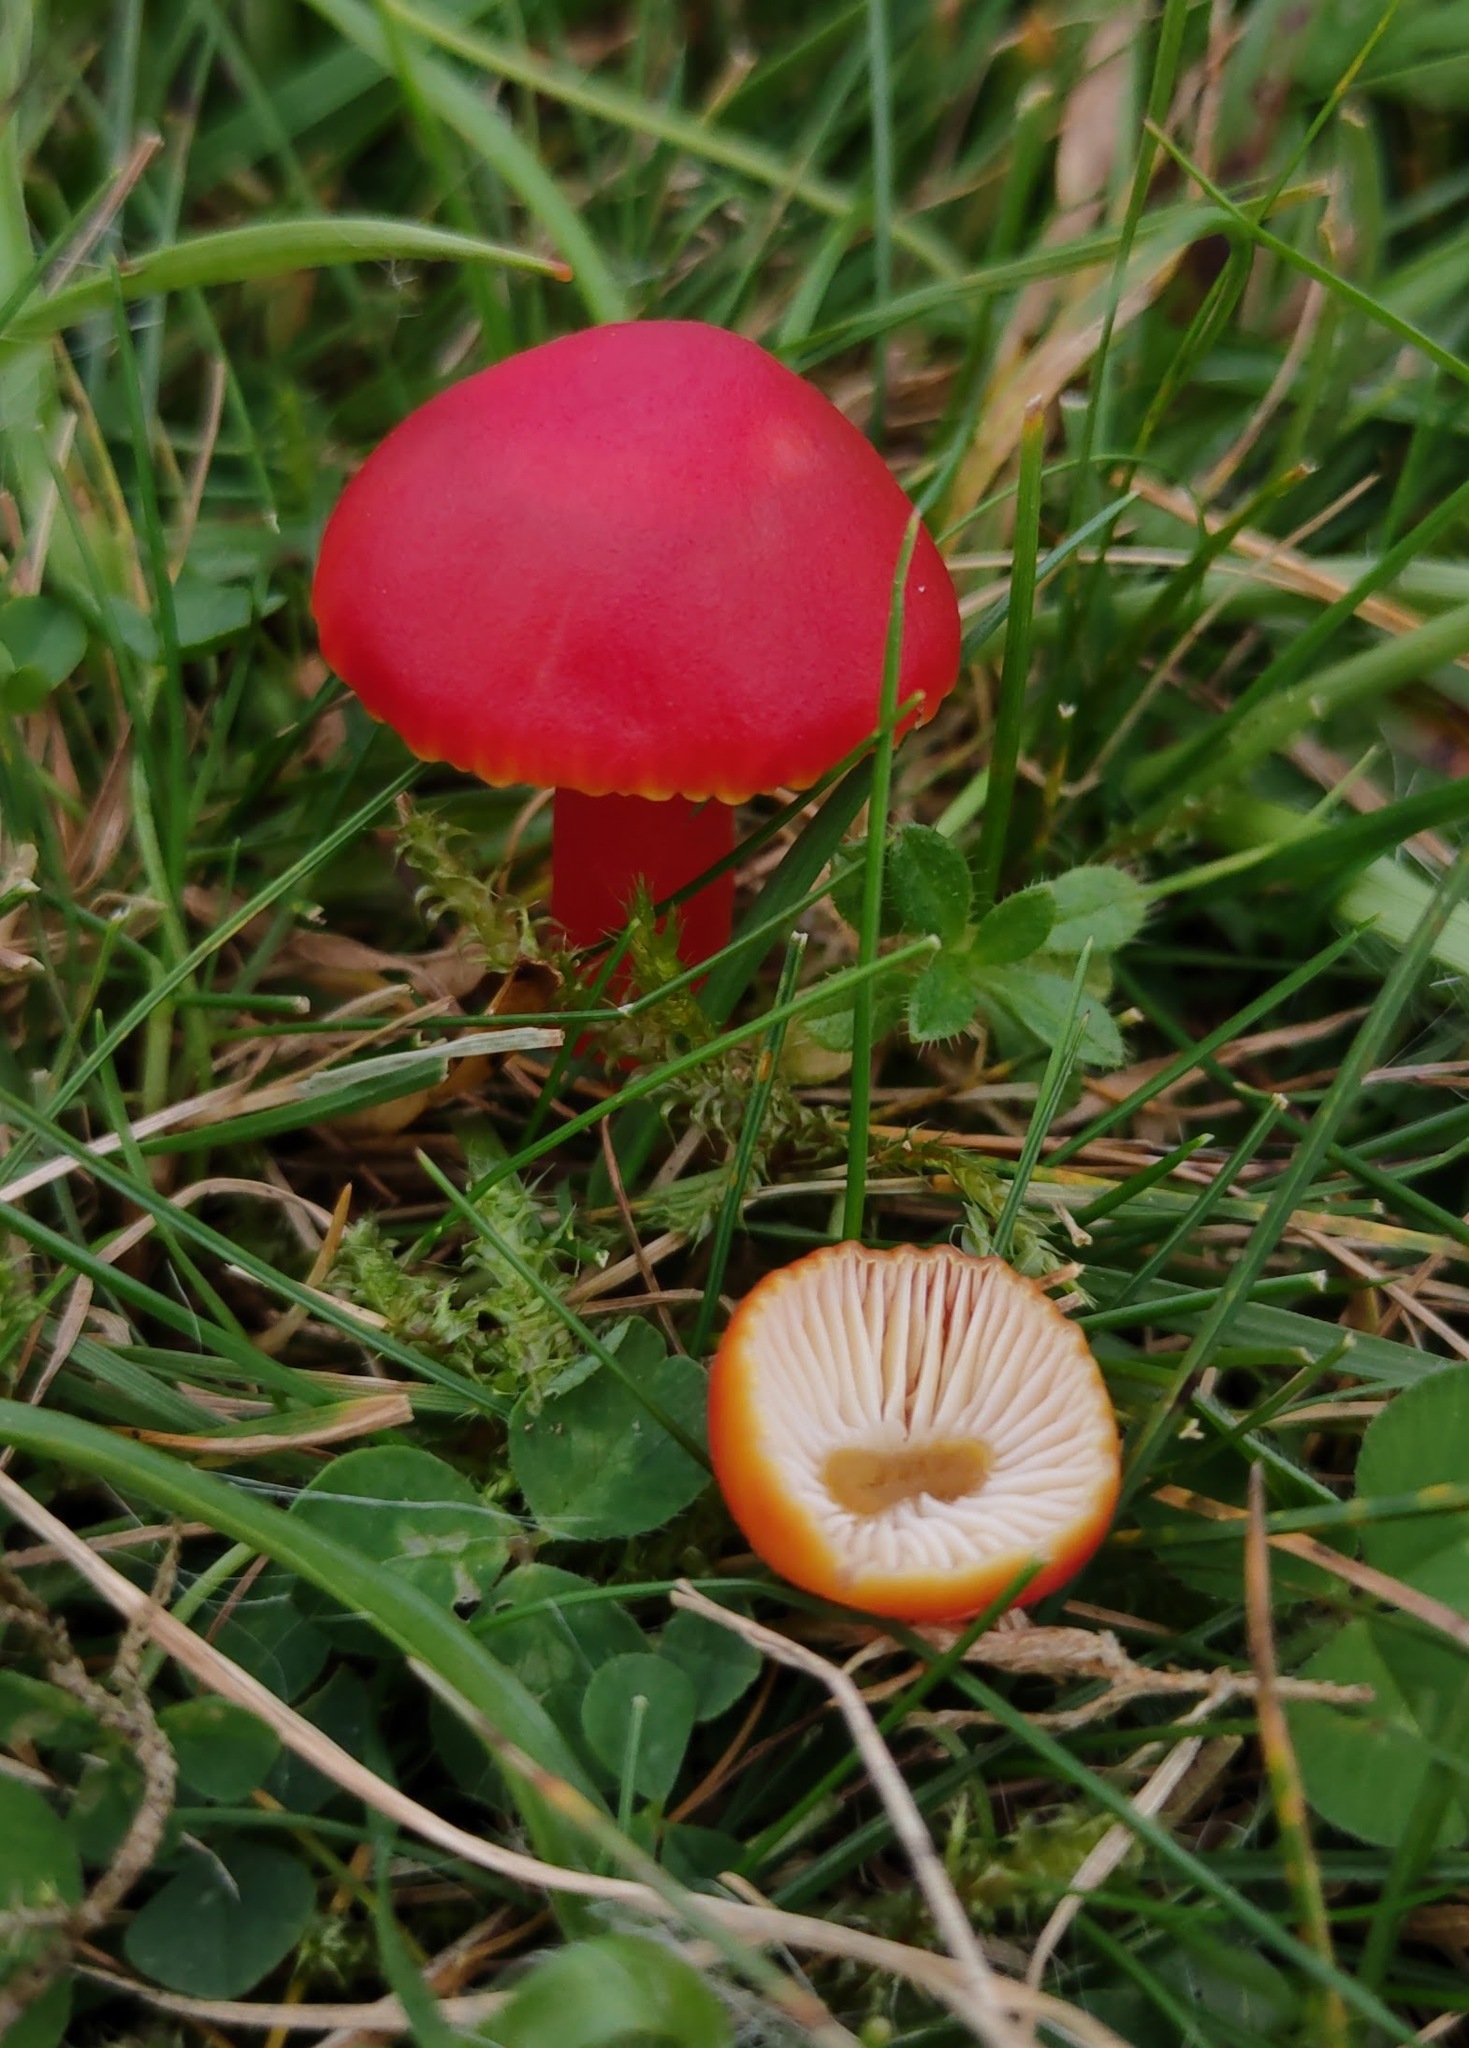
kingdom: Fungi
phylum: Basidiomycota
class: Agaricomycetes
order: Agaricales
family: Hygrophoraceae
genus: Hygrocybe
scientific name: Hygrocybe coccinea
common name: Scarlet hood
